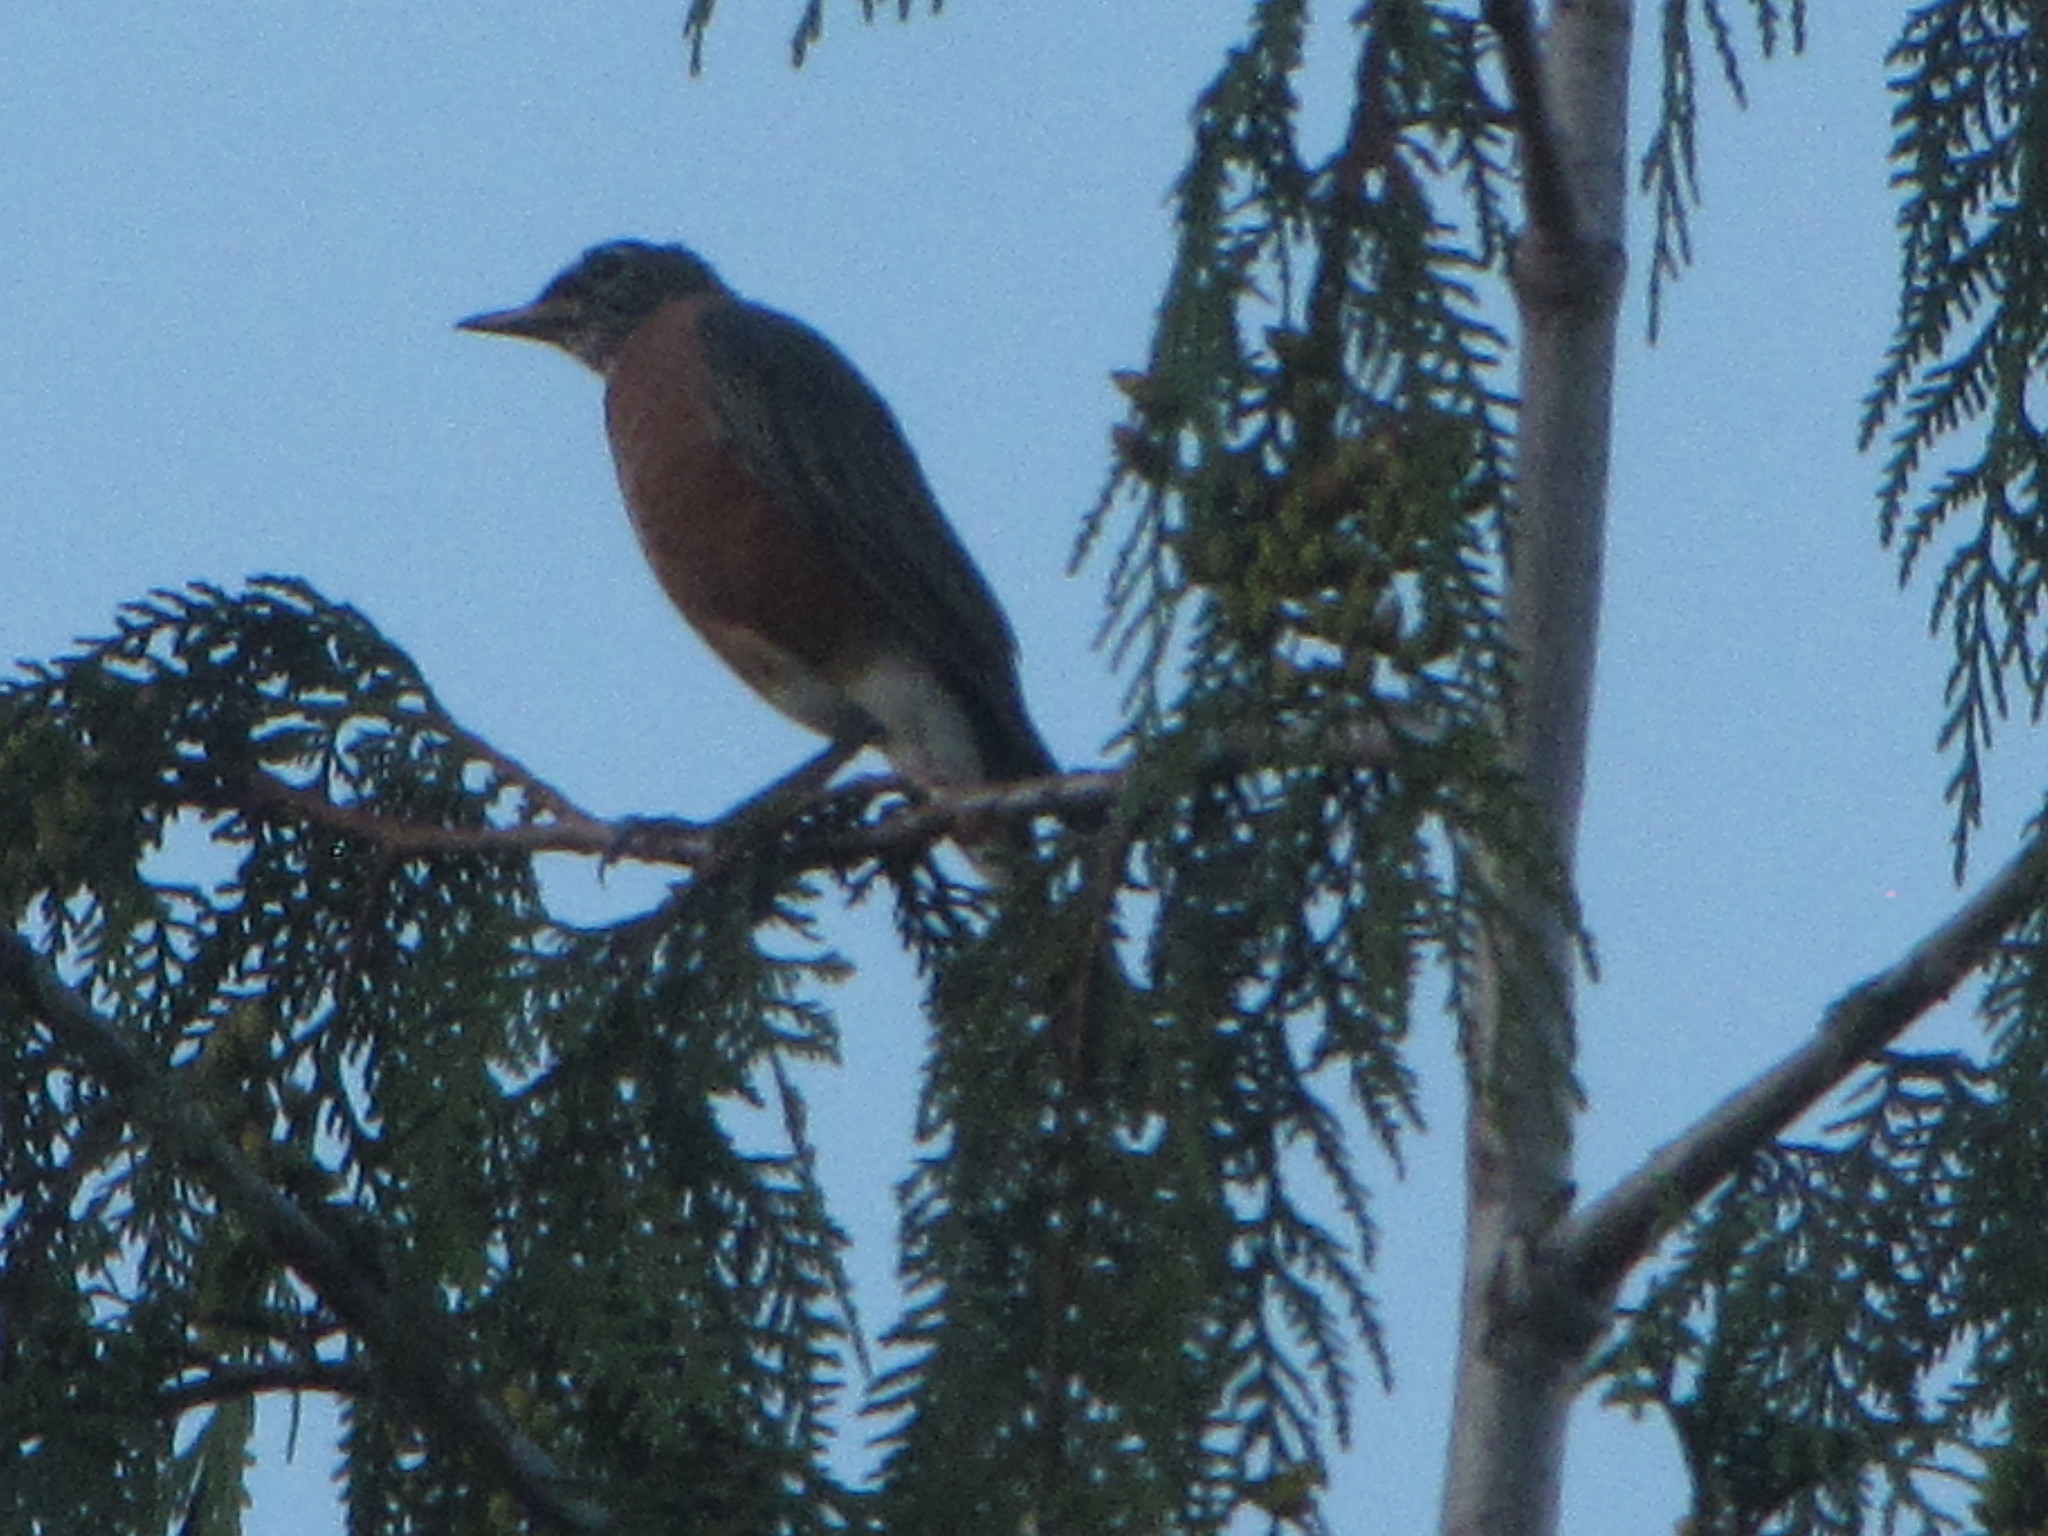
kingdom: Animalia
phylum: Chordata
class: Aves
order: Passeriformes
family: Turdidae
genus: Turdus
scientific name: Turdus migratorius
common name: American robin
